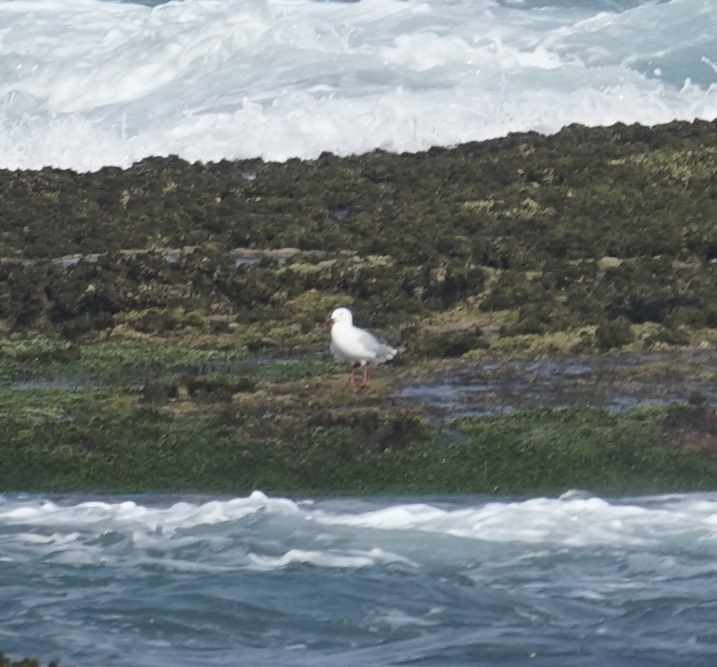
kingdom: Animalia
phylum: Chordata
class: Aves
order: Charadriiformes
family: Laridae
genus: Chroicocephalus
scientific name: Chroicocephalus novaehollandiae
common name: Silver gull
